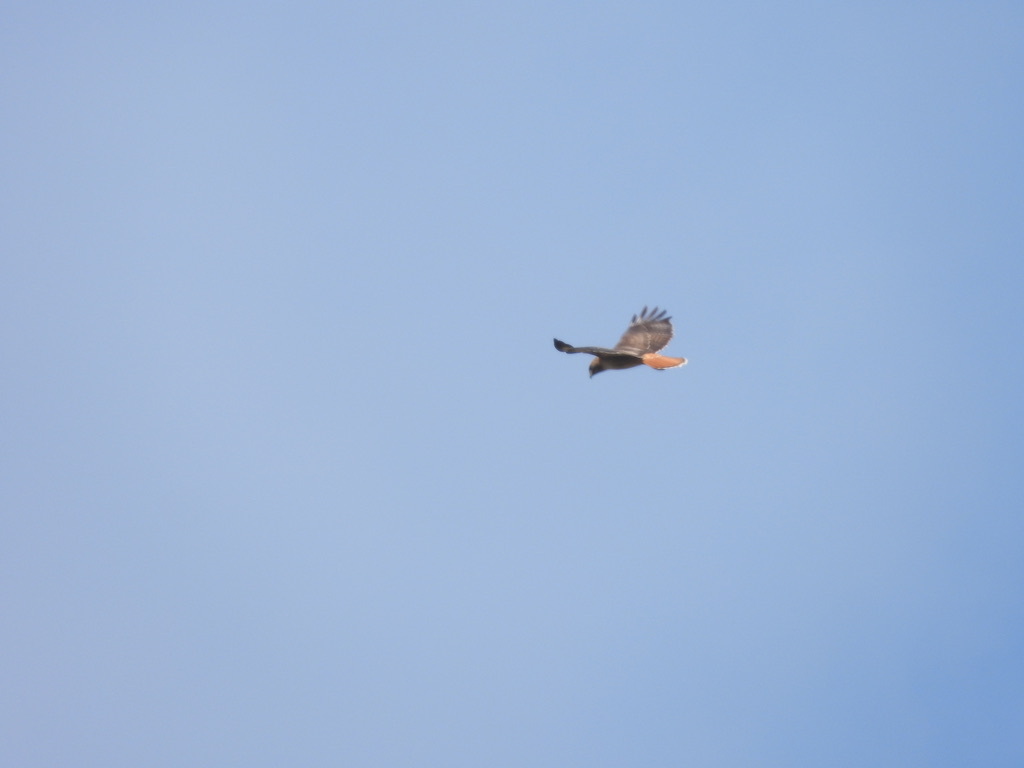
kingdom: Animalia
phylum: Chordata
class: Aves
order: Accipitriformes
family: Accipitridae
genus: Buteo
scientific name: Buteo jamaicensis
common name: Red-tailed hawk
